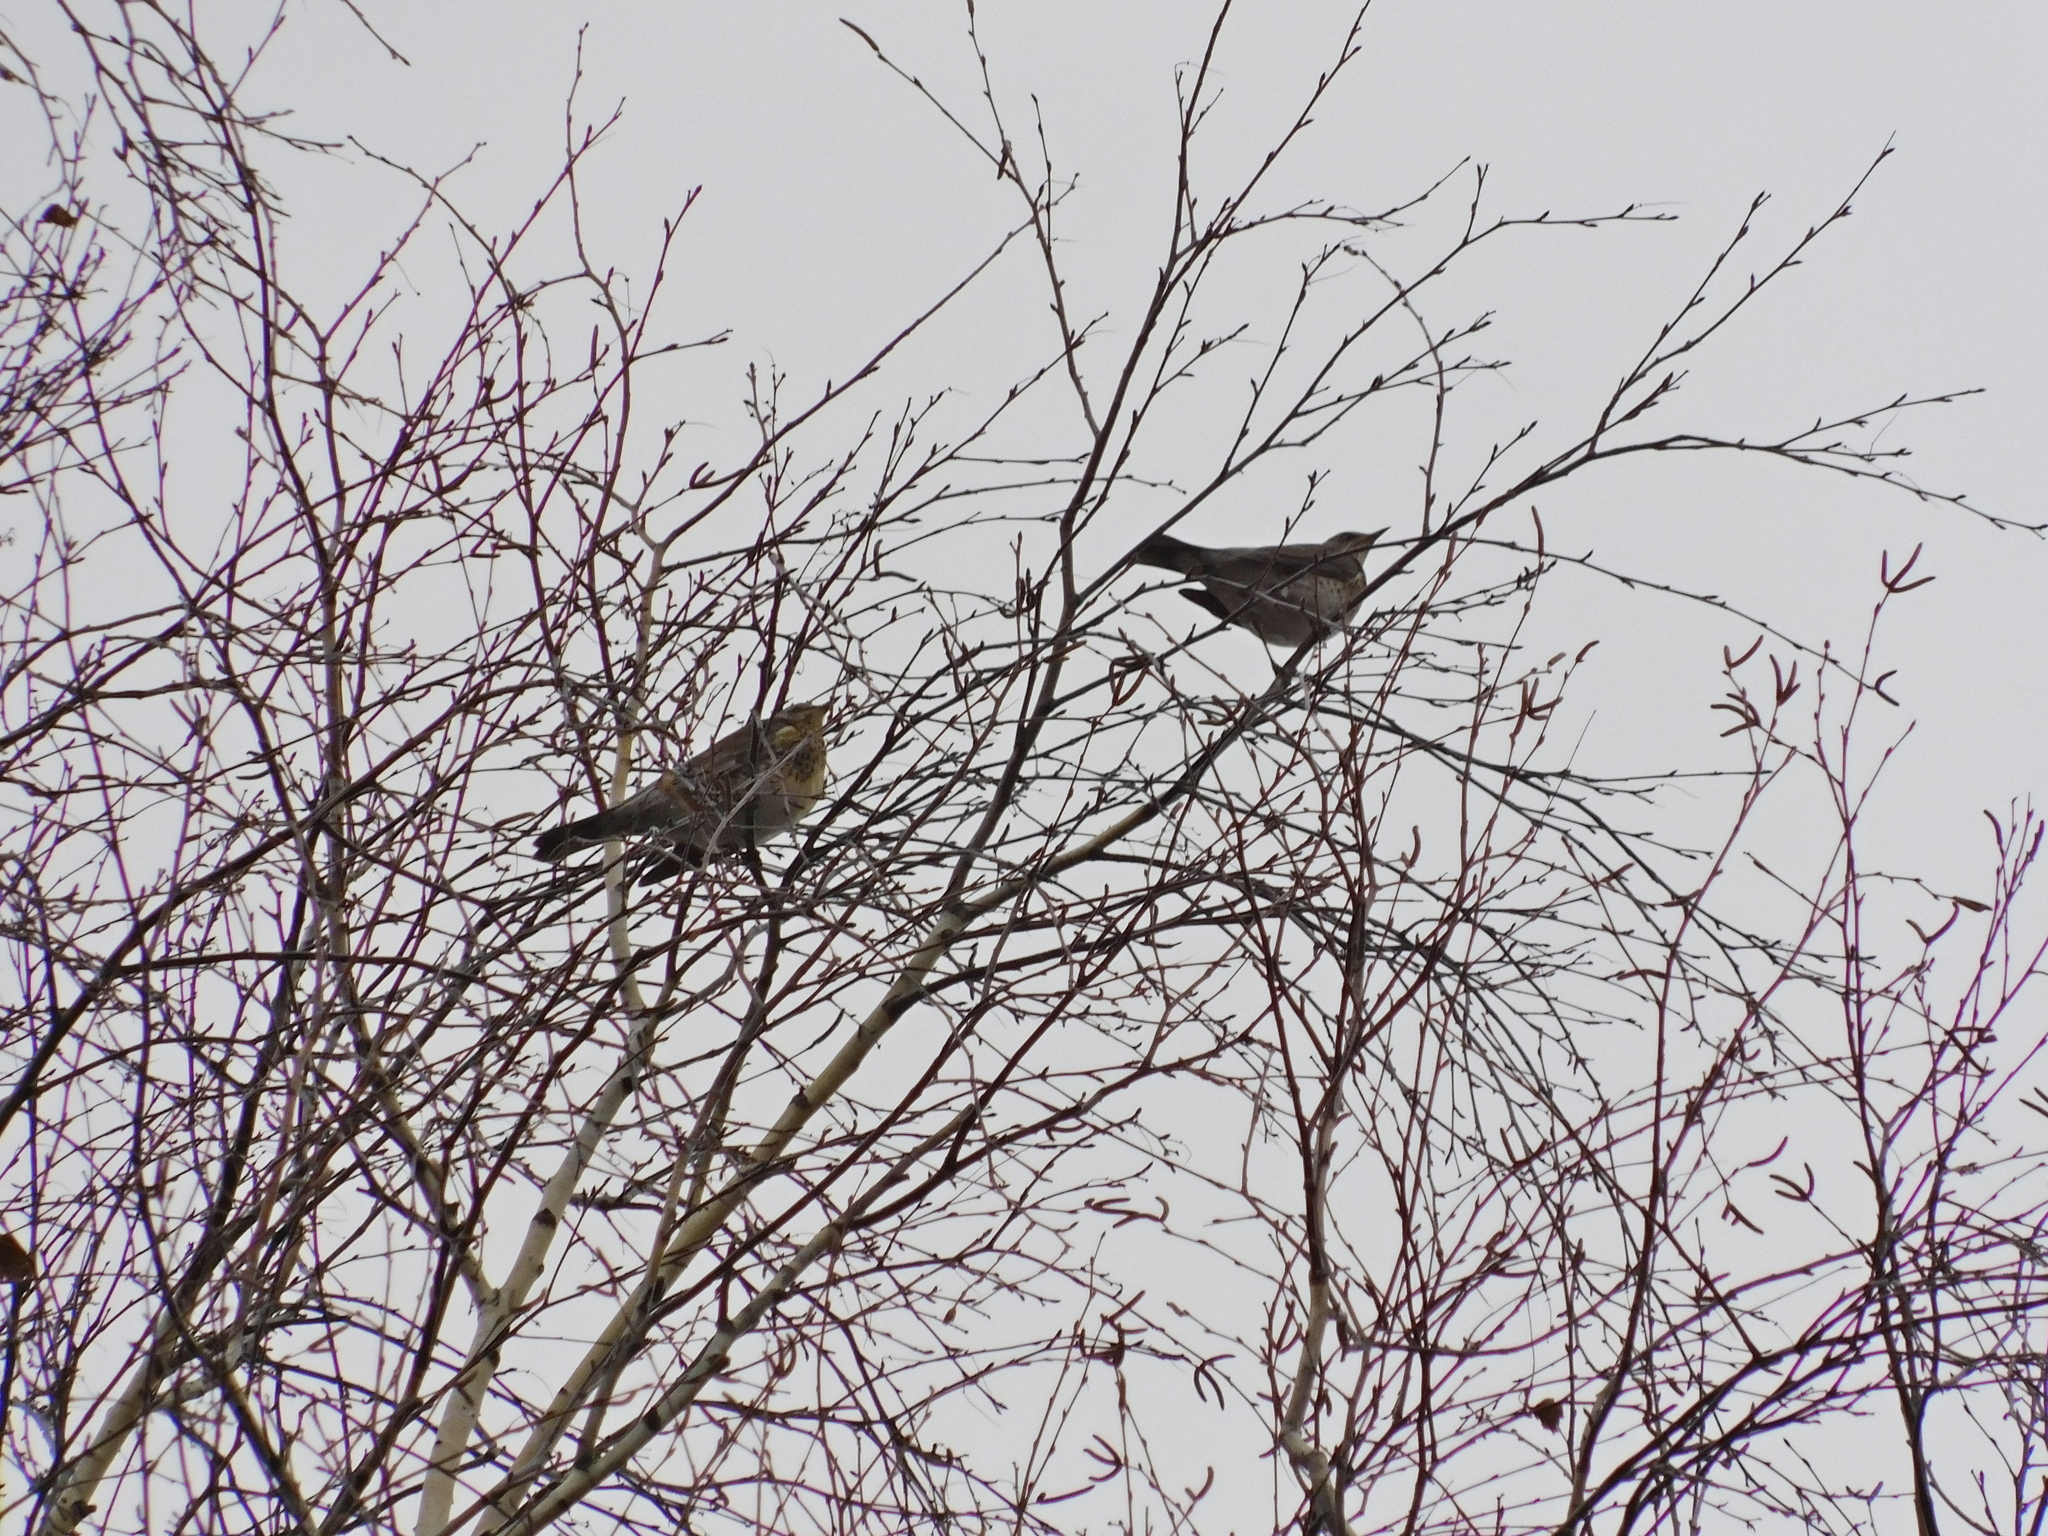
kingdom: Animalia
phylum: Chordata
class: Aves
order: Passeriformes
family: Turdidae
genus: Turdus
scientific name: Turdus pilaris
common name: Fieldfare
